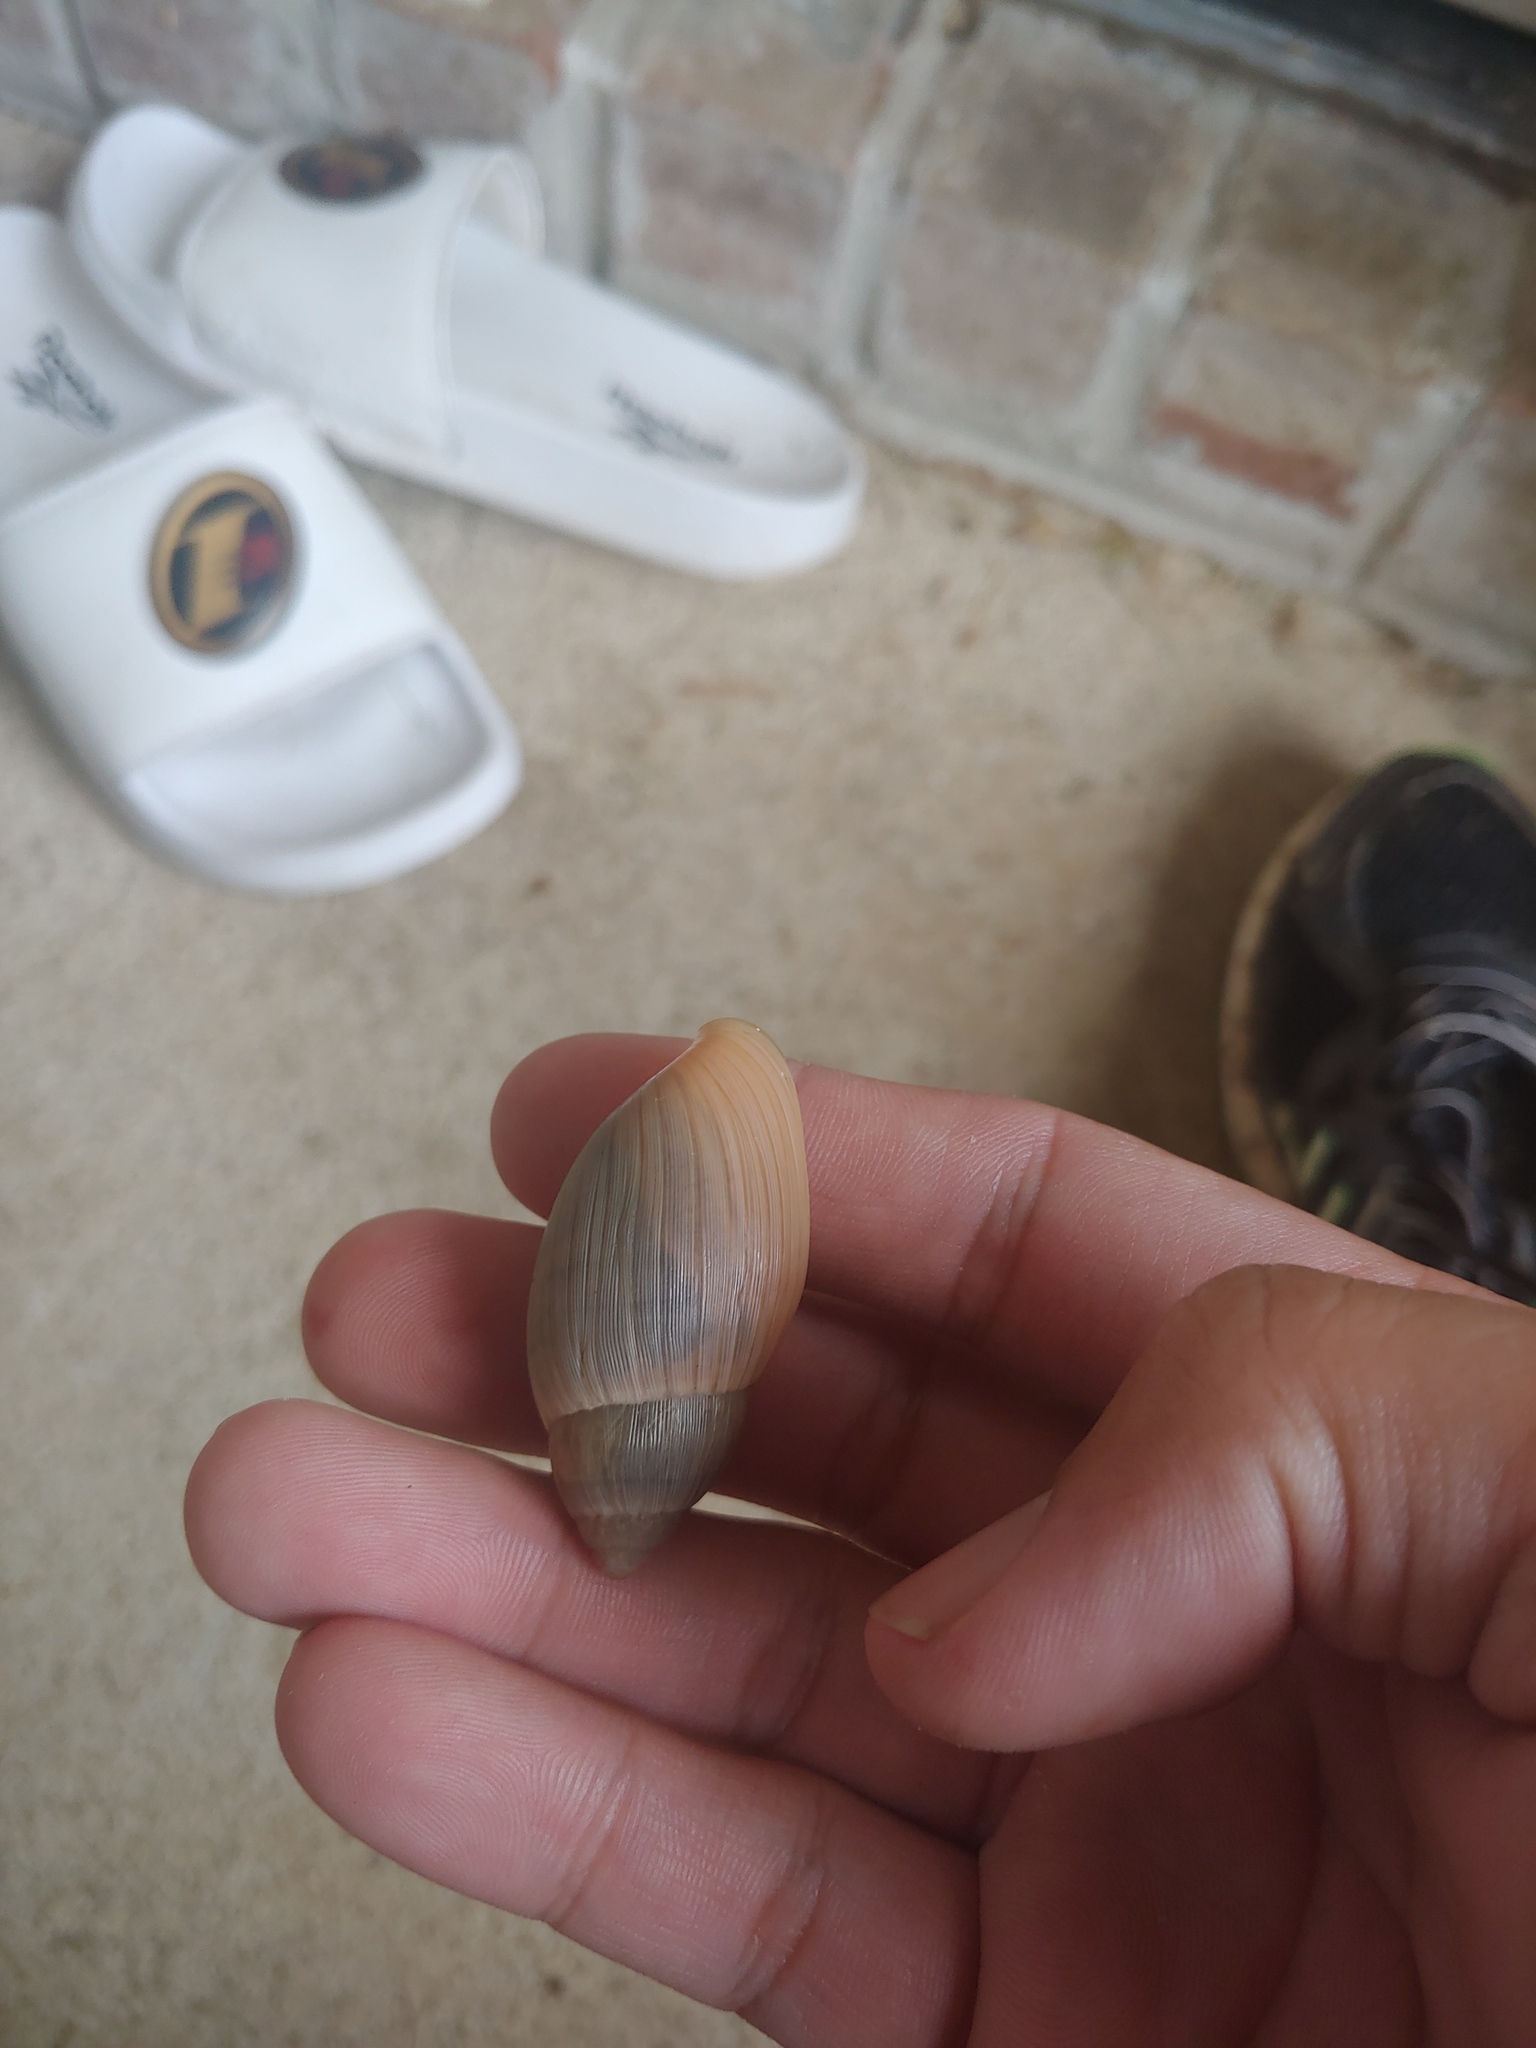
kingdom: Animalia
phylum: Mollusca
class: Gastropoda
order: Stylommatophora
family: Spiraxidae
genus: Euglandina
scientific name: Euglandina rosea
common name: Rosy wolfsnail
